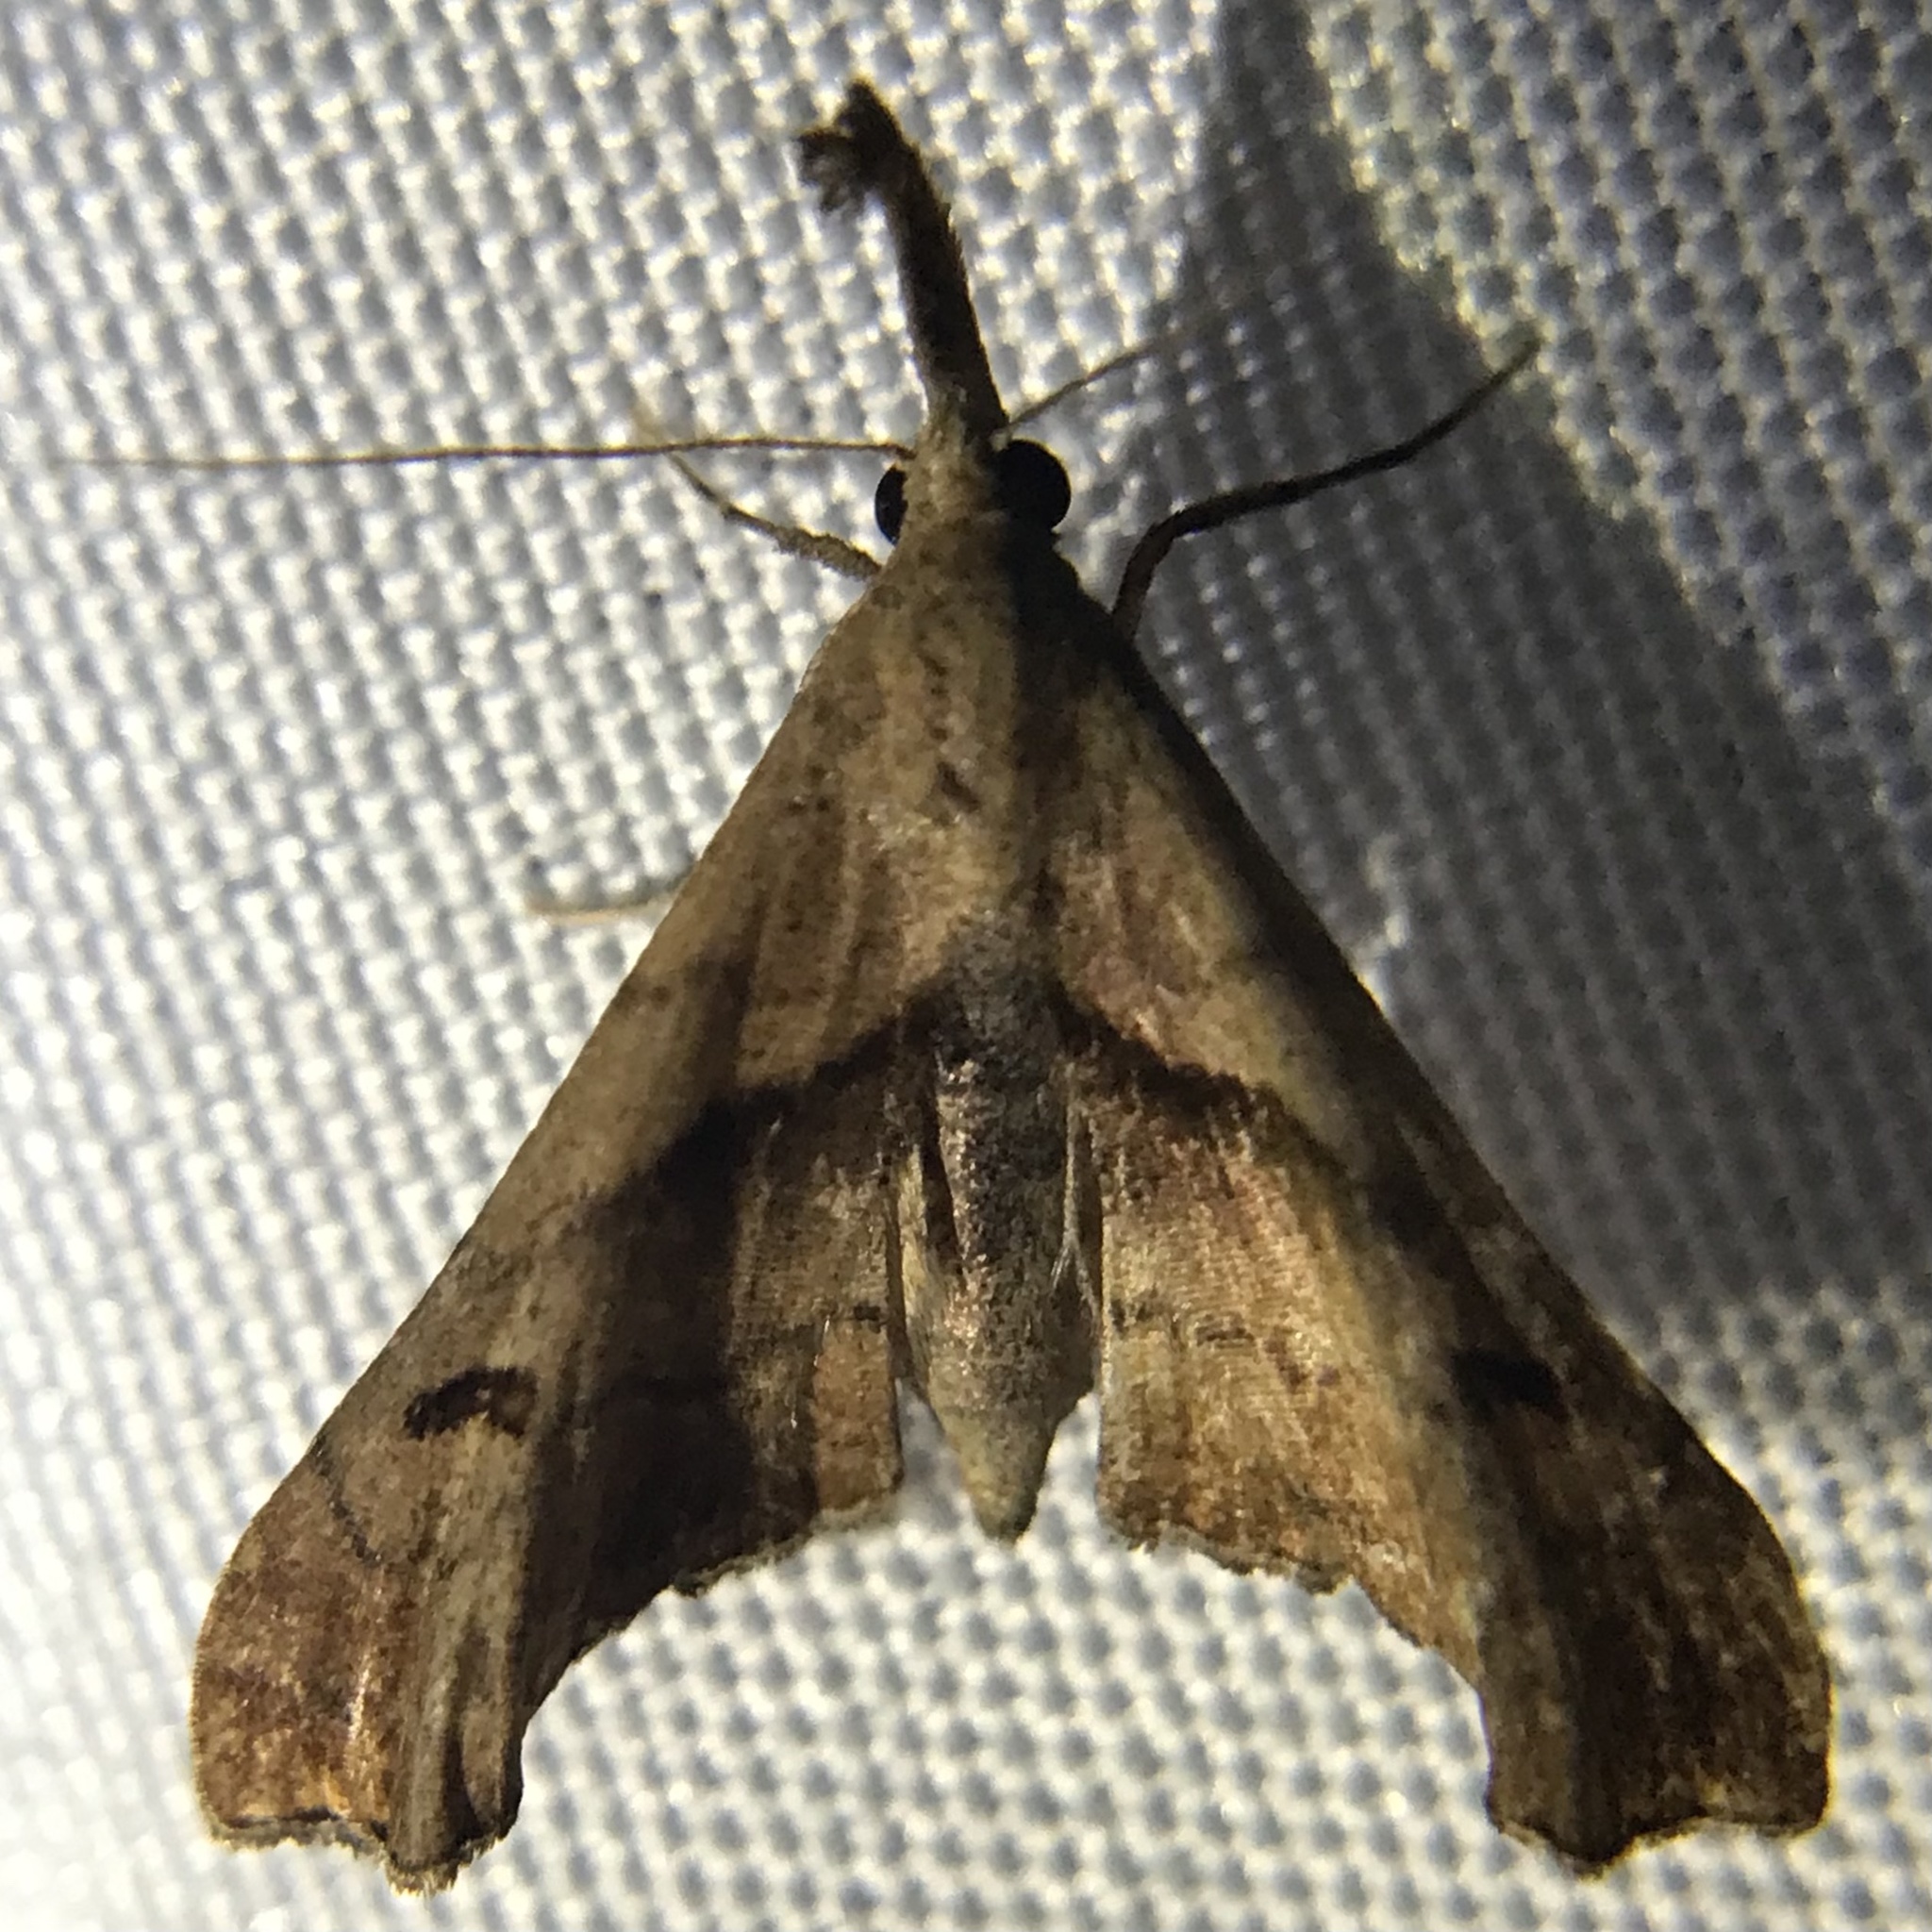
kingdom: Animalia
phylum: Arthropoda
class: Insecta
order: Lepidoptera
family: Erebidae
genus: Palthis
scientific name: Palthis angulalis
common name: Dark-spotted palthis moth
